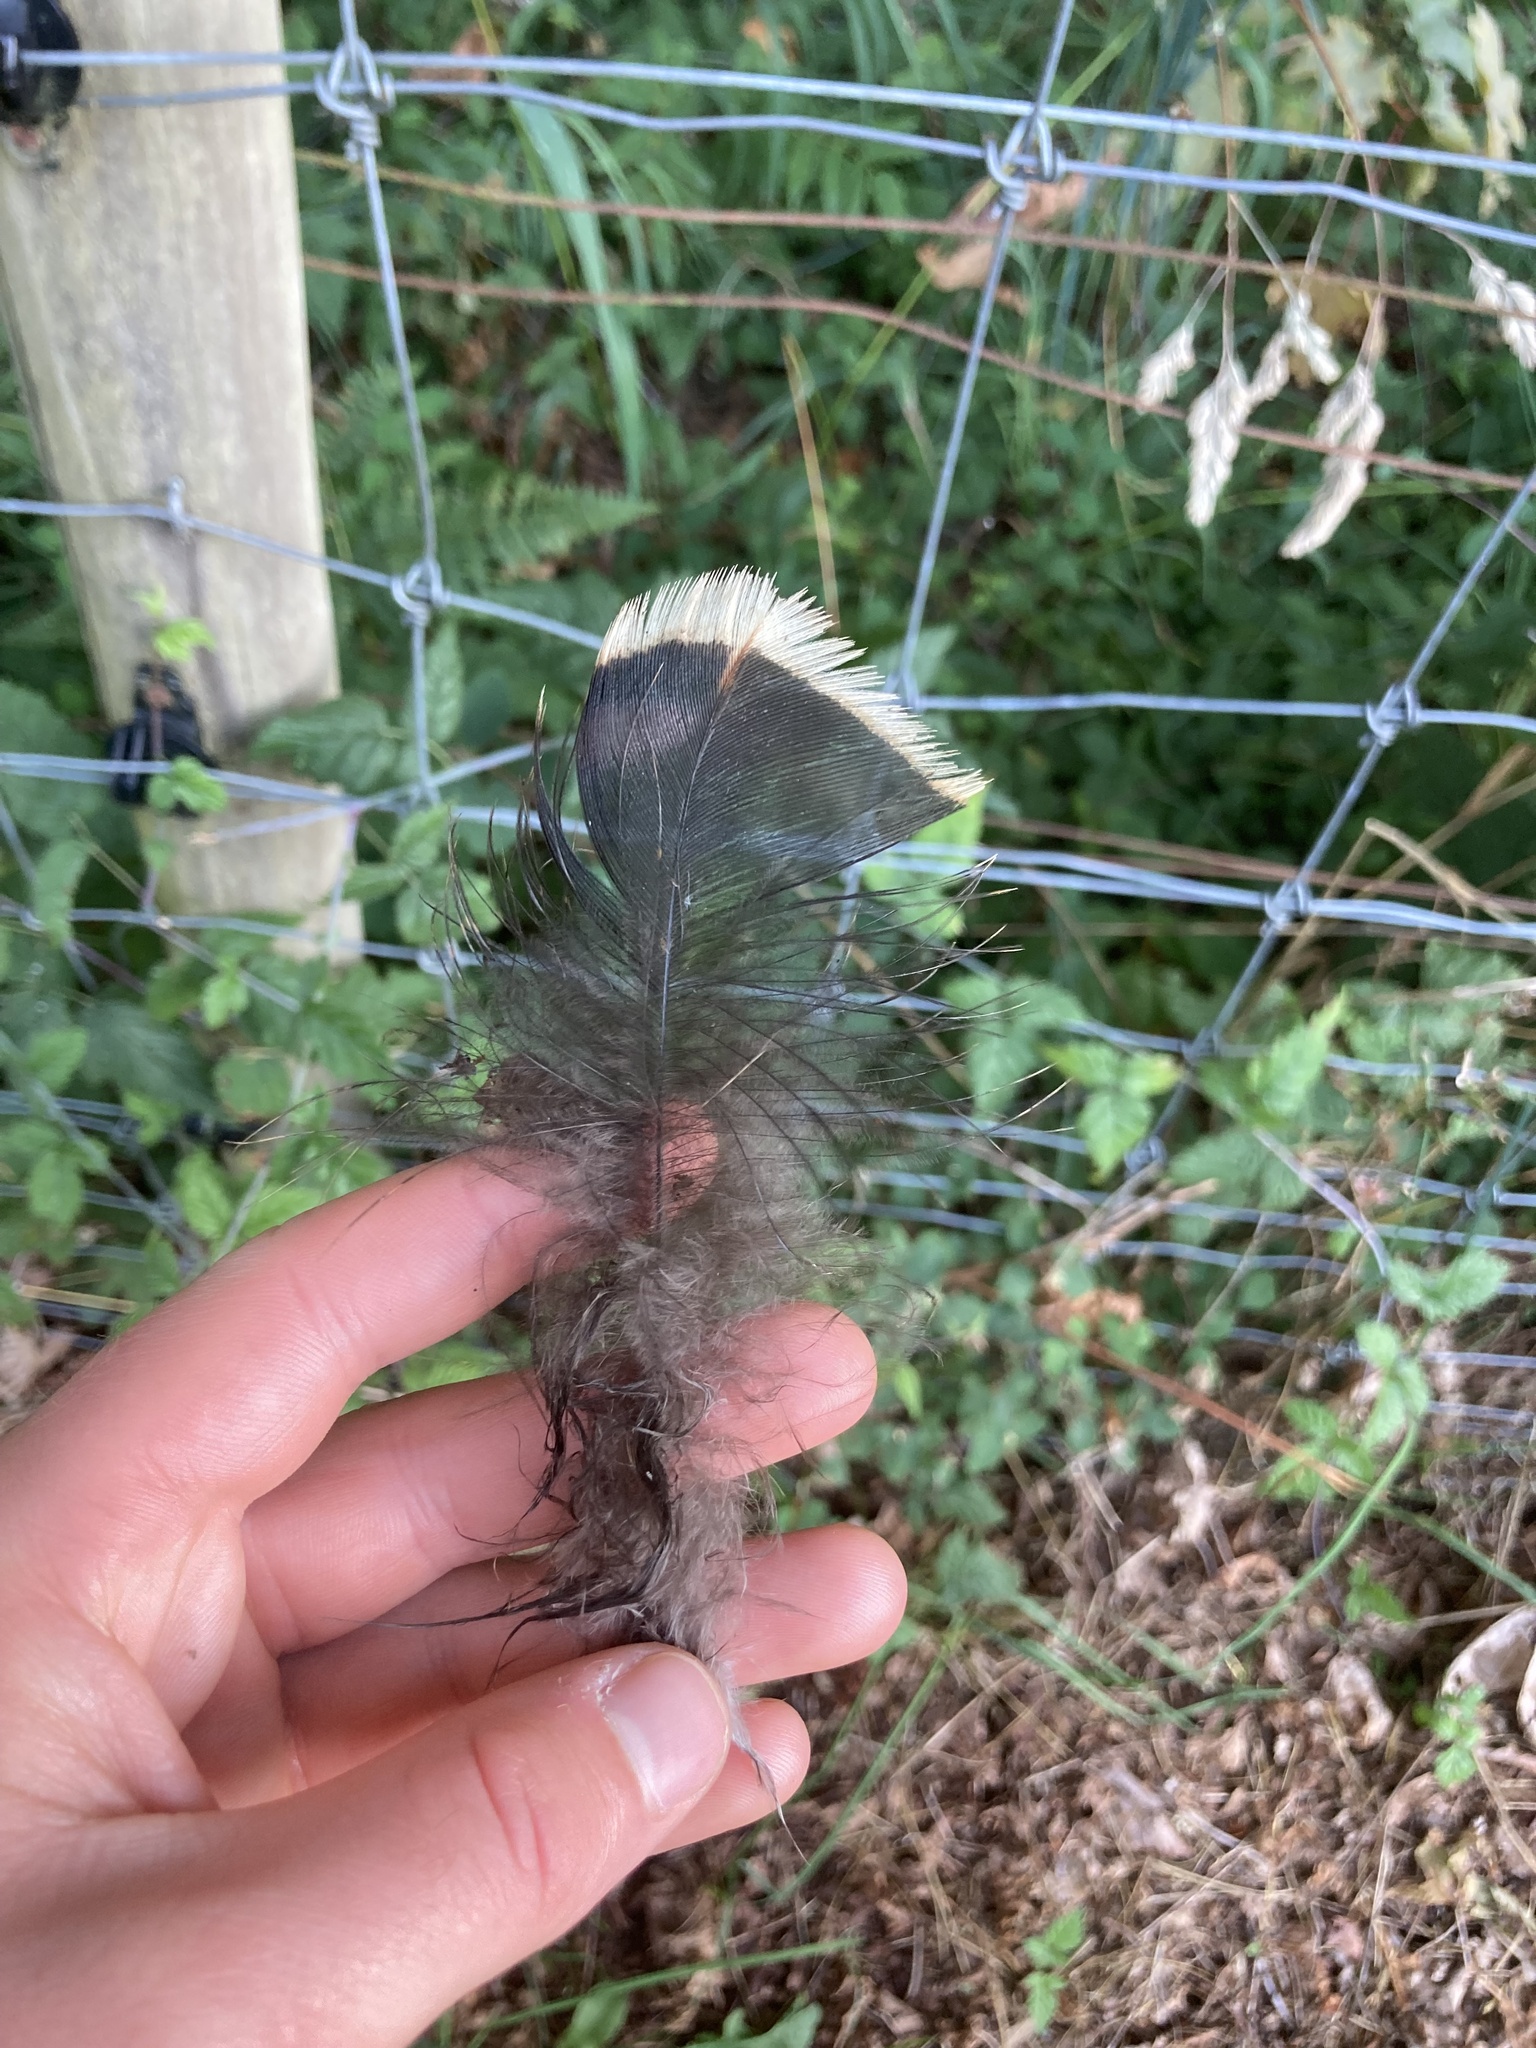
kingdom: Animalia
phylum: Chordata
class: Aves
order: Galliformes
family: Phasianidae
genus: Meleagris
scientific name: Meleagris gallopavo
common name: Wild turkey
